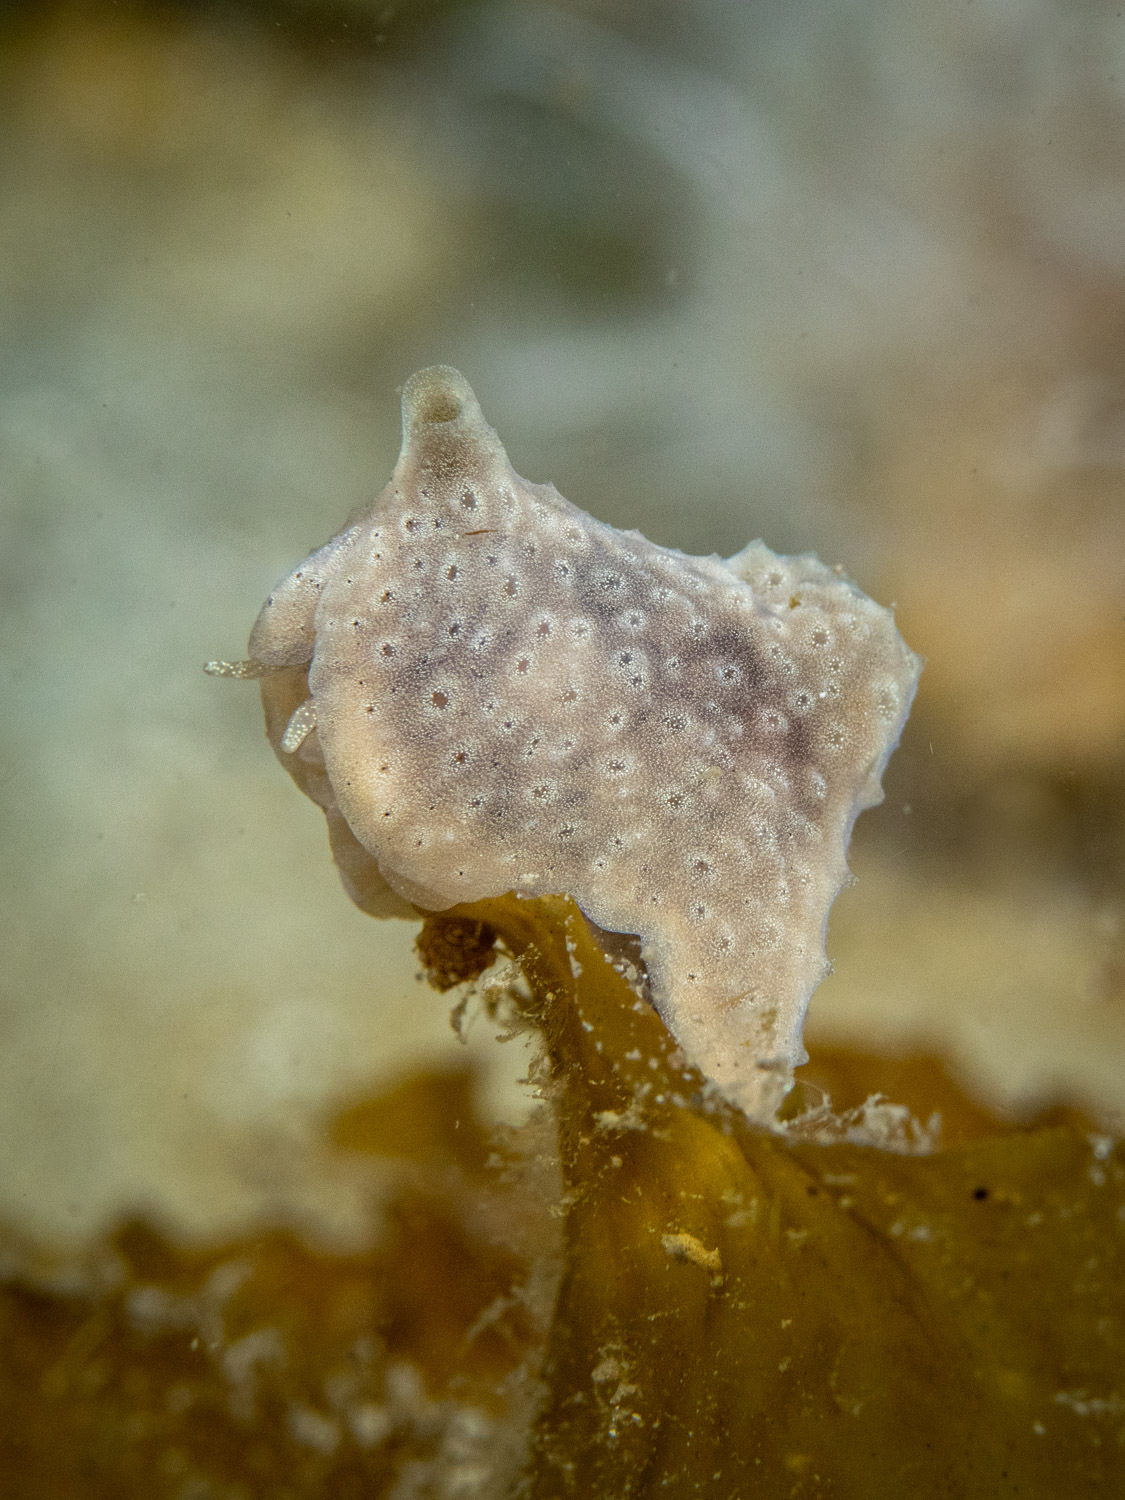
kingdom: Animalia
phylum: Mollusca
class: Gastropoda
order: Littorinimorpha
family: Velutinidae
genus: Lamellaria
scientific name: Lamellaria ophione
